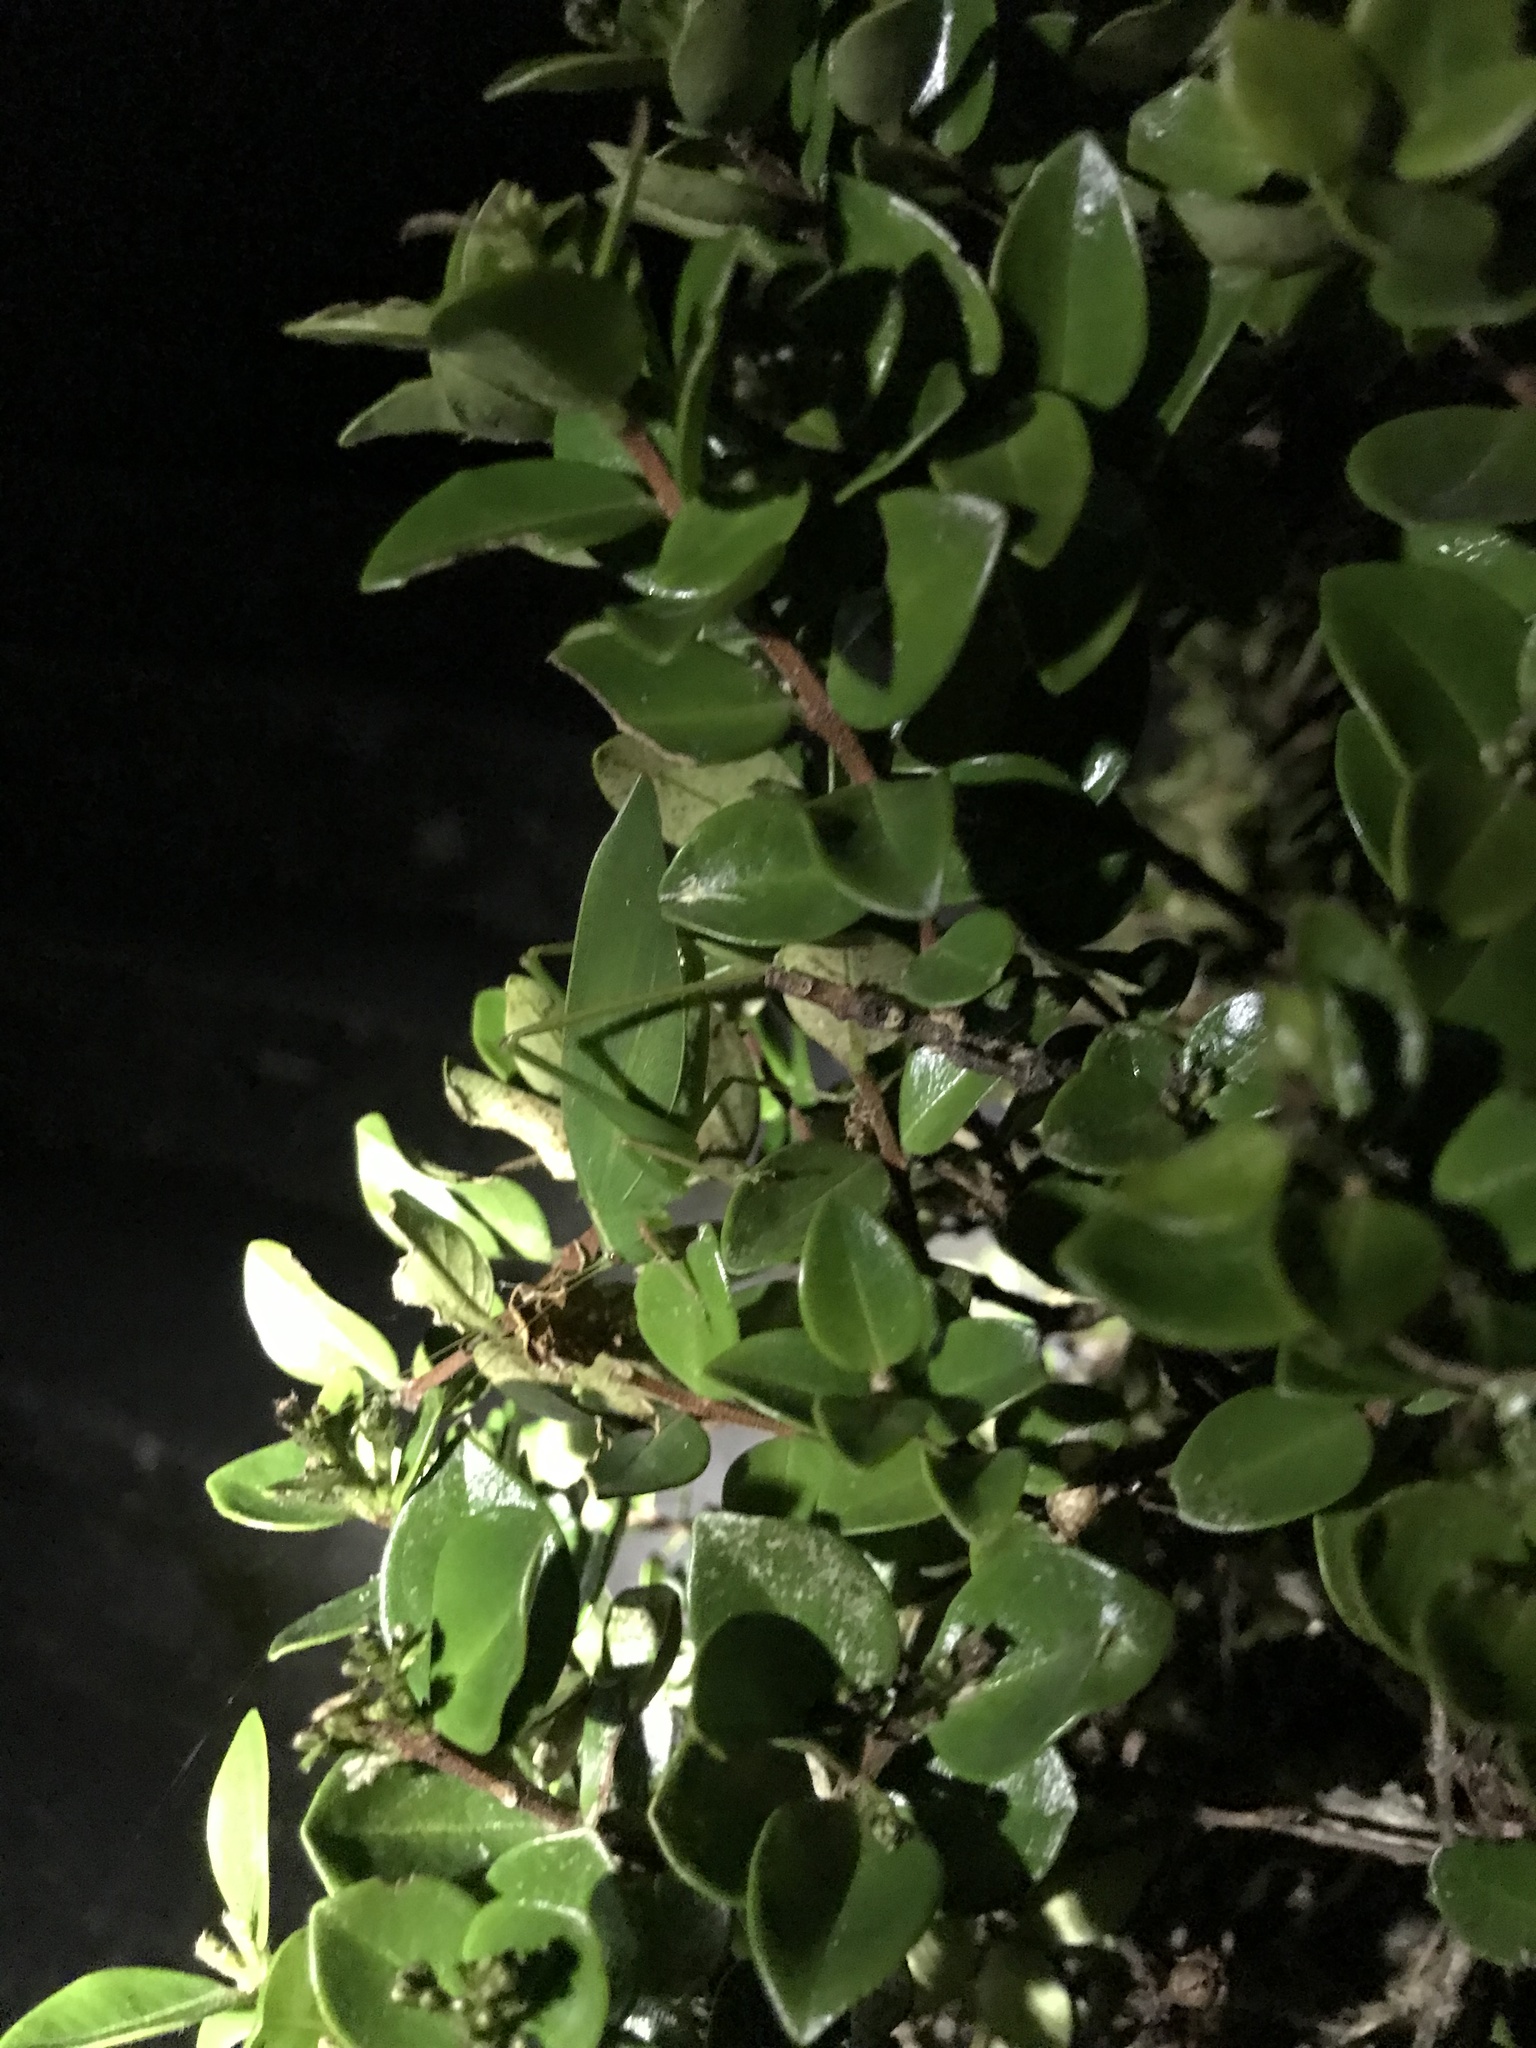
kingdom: Animalia
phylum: Arthropoda
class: Insecta
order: Orthoptera
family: Tettigoniidae
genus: Caedicia
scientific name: Caedicia simplex
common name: Common garden katydid
